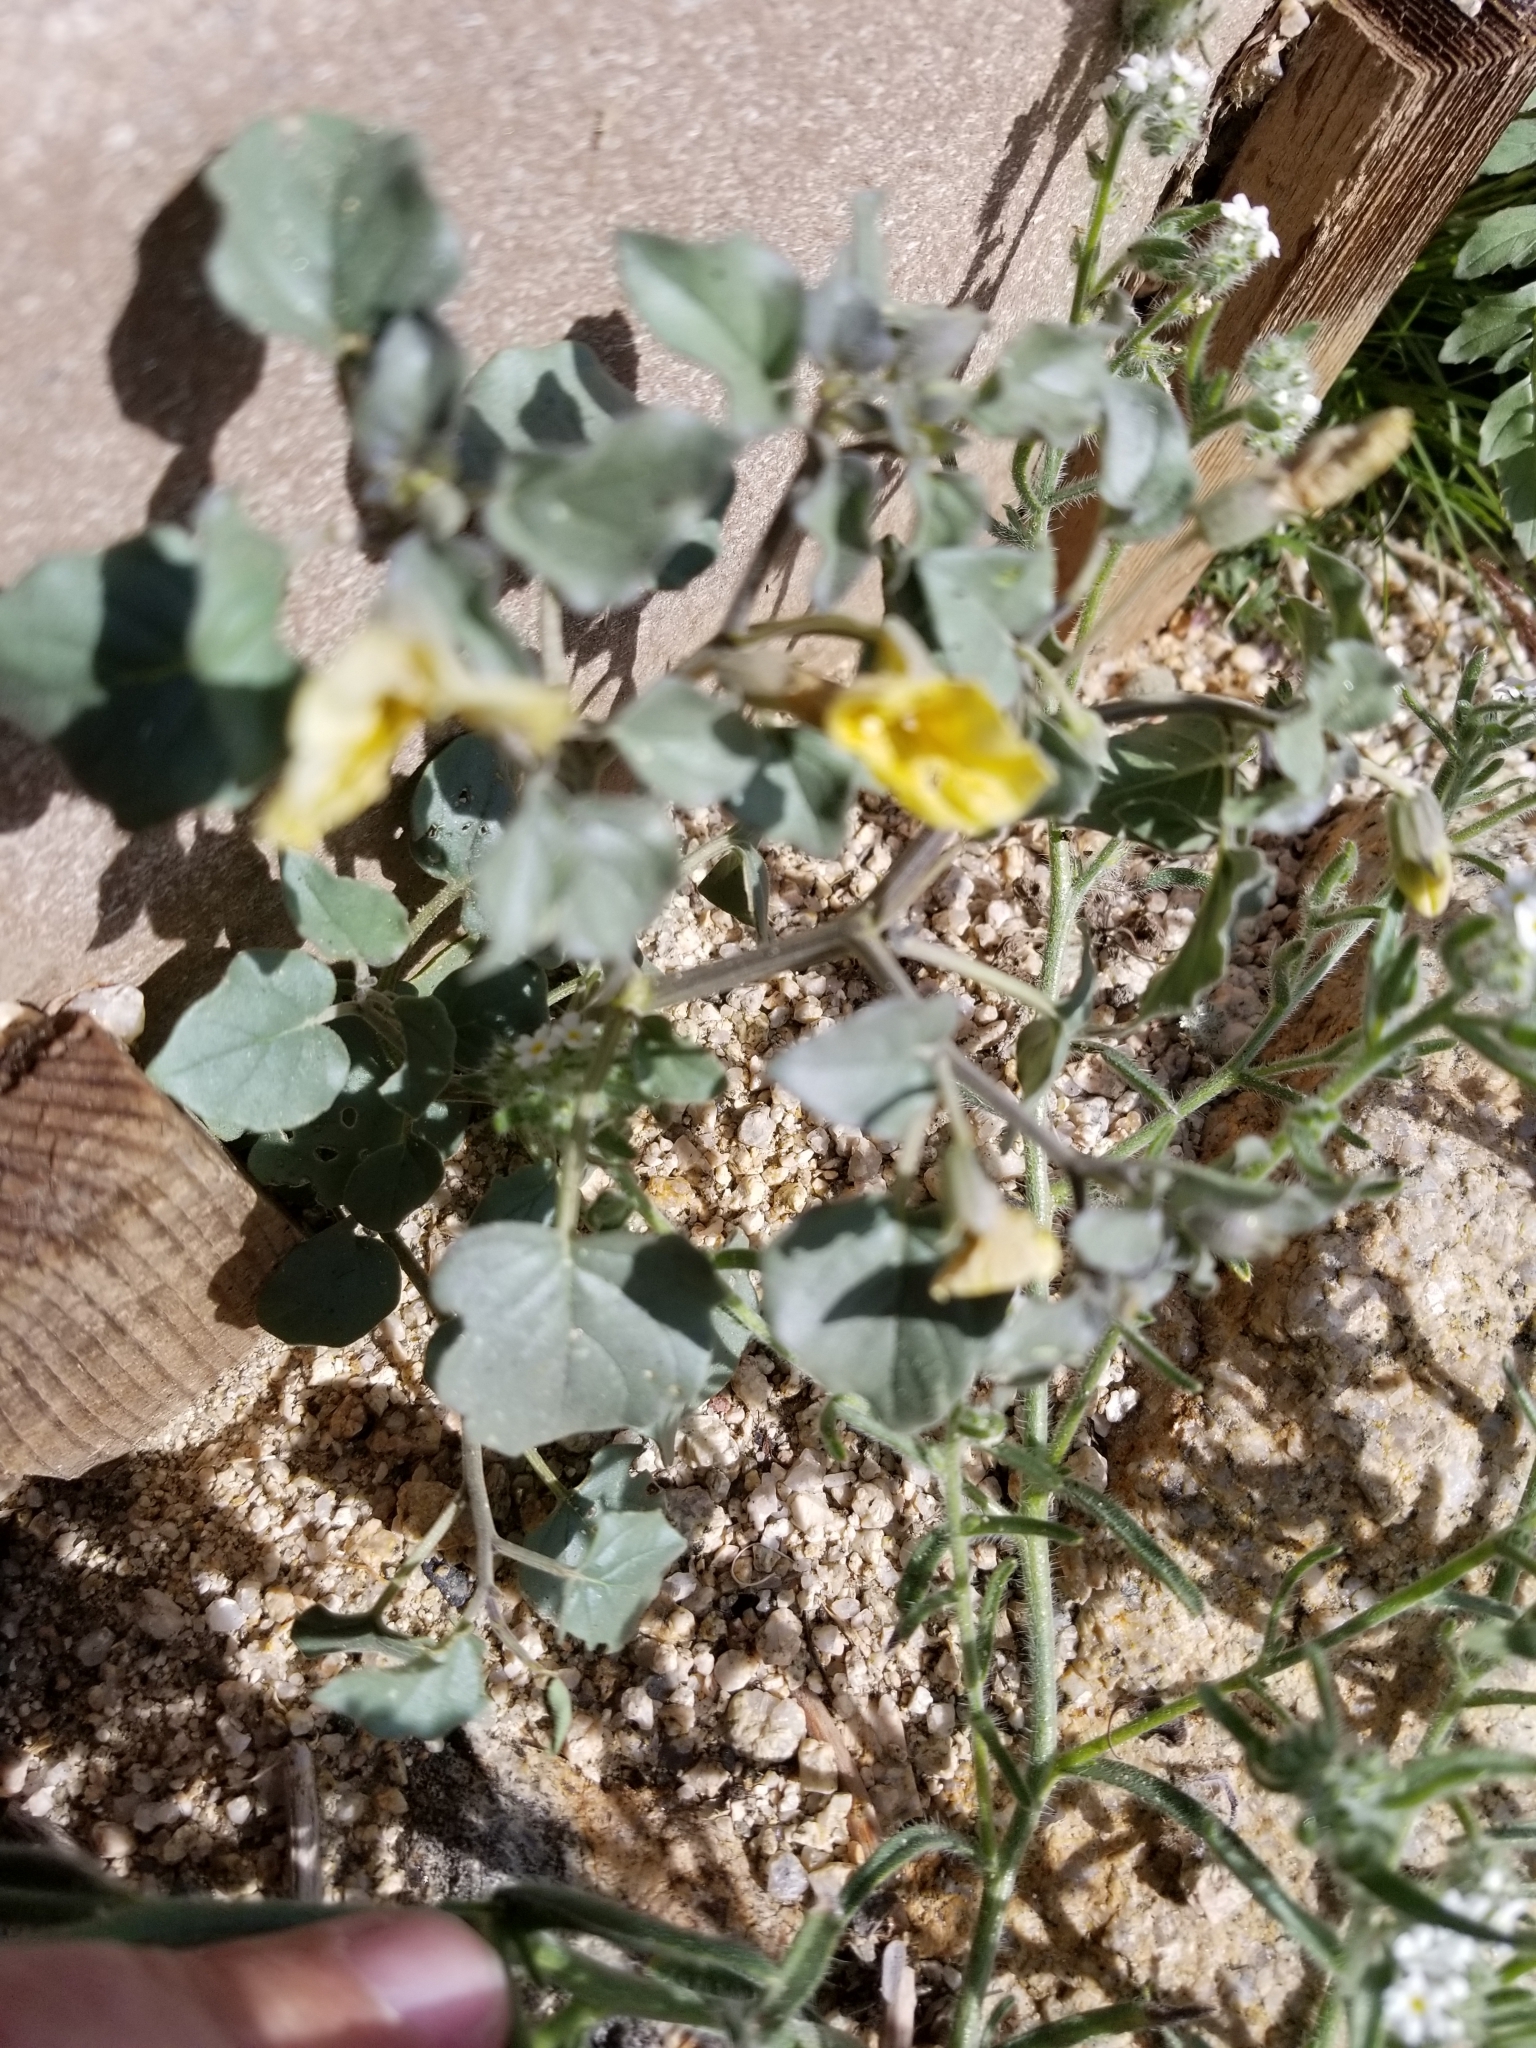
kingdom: Plantae
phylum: Tracheophyta
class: Magnoliopsida
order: Solanales
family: Solanaceae
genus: Physalis
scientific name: Physalis crassifolia
